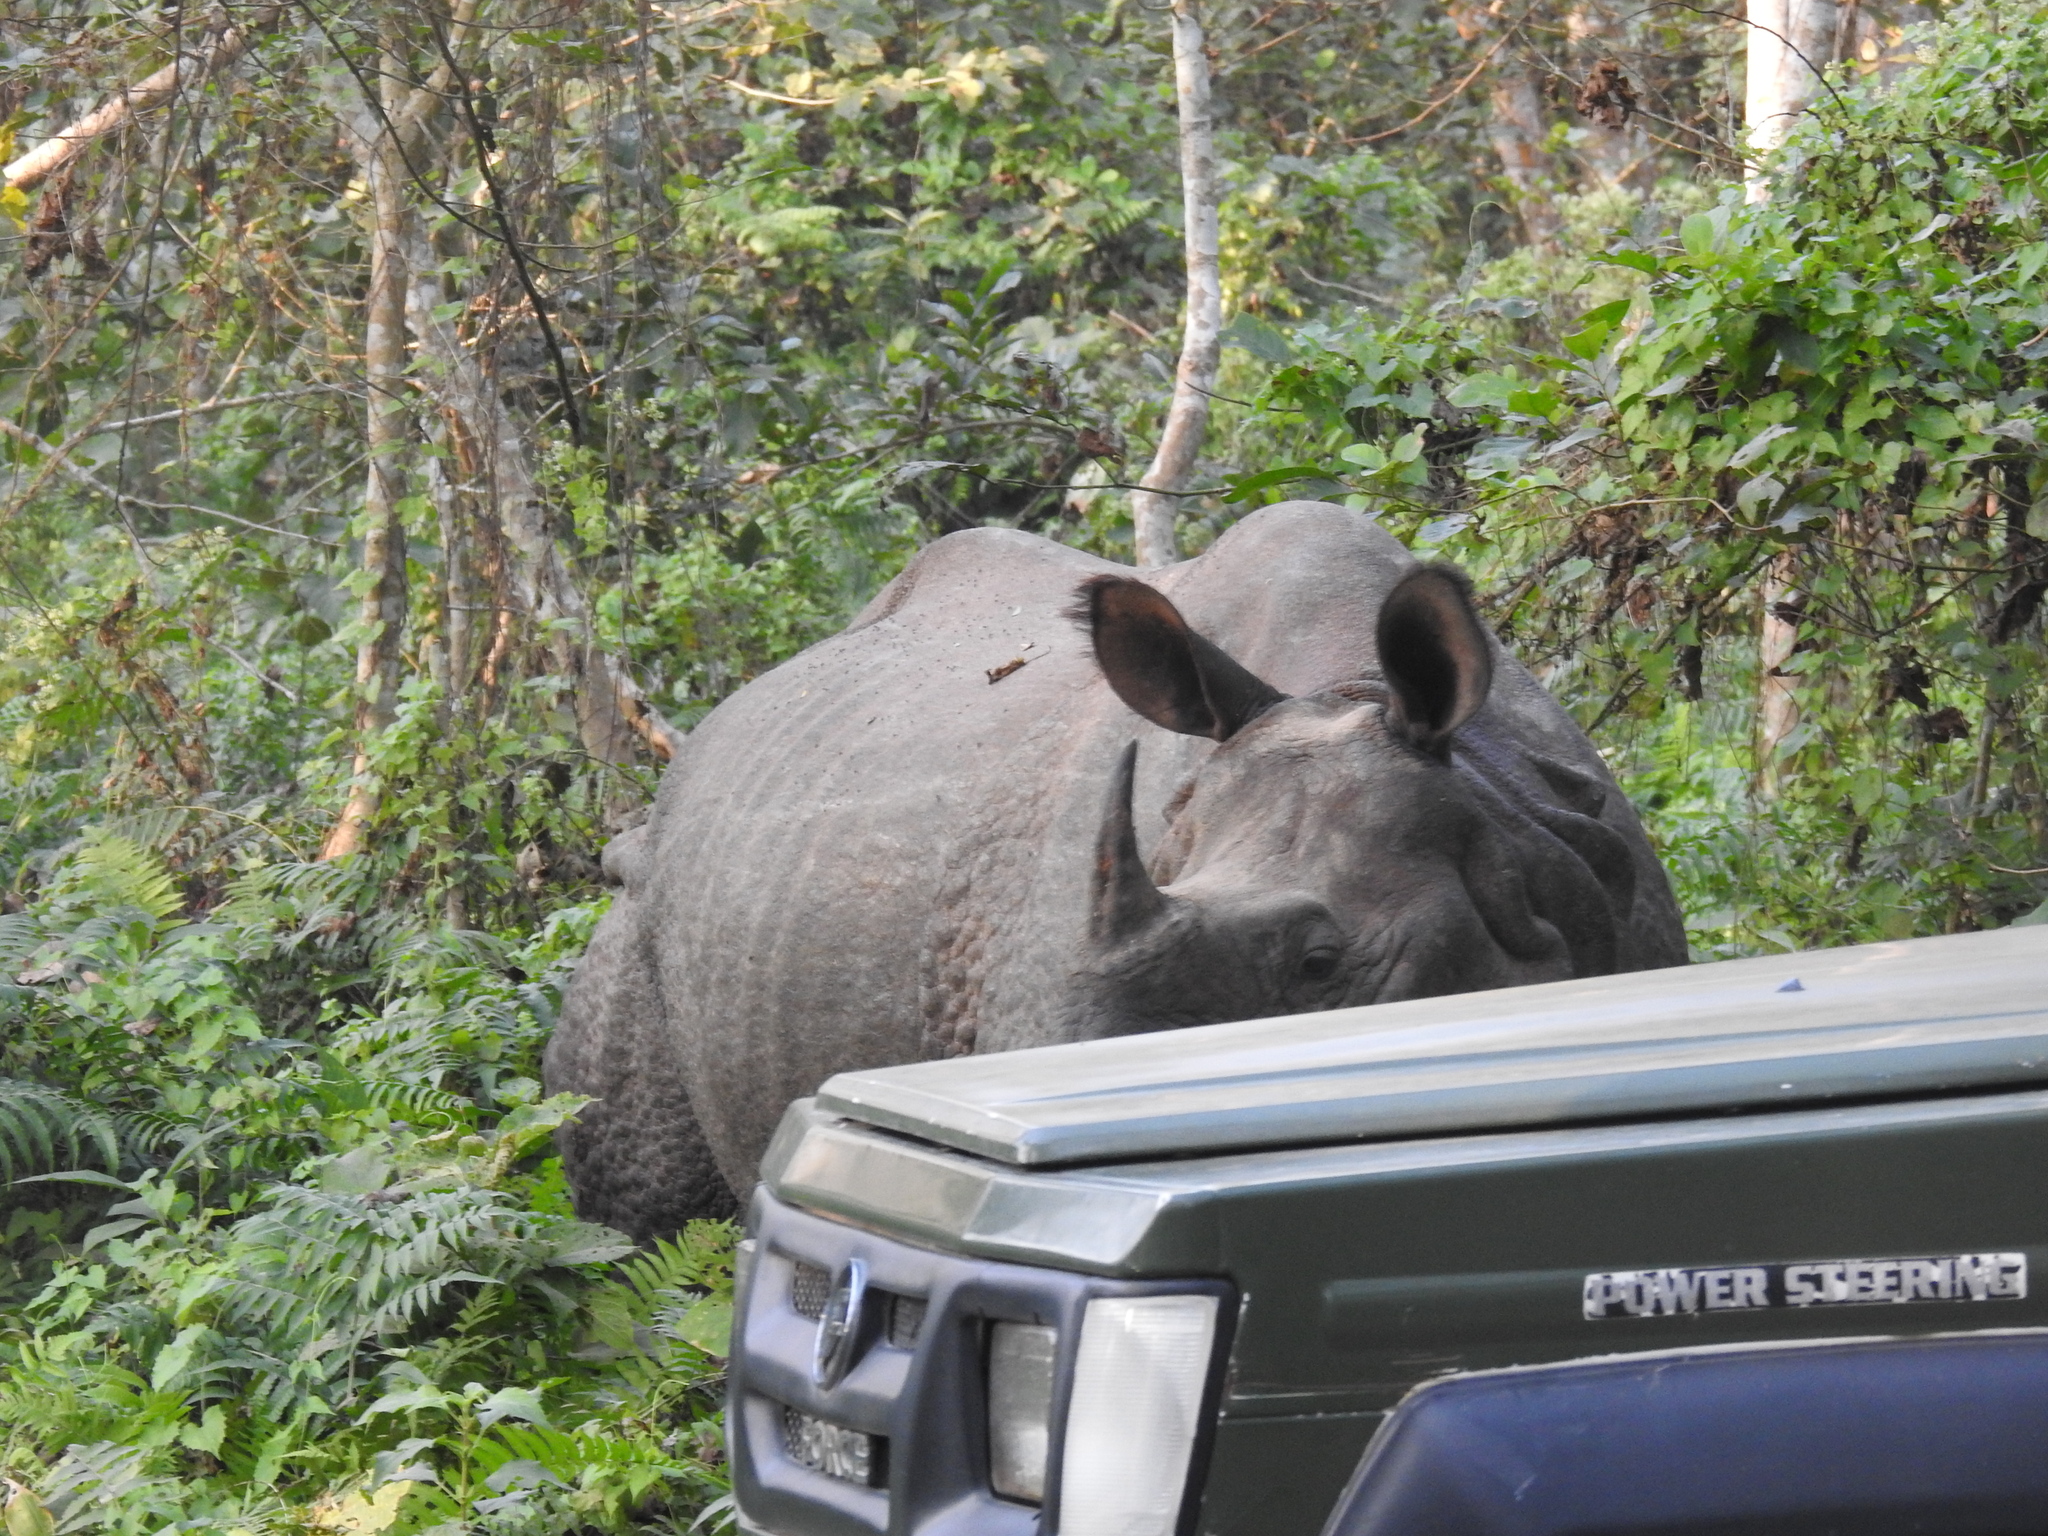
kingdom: Animalia
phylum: Chordata
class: Mammalia
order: Perissodactyla
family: Rhinocerotidae
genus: Rhinoceros
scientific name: Rhinoceros unicornis
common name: Indian rhinoceros
